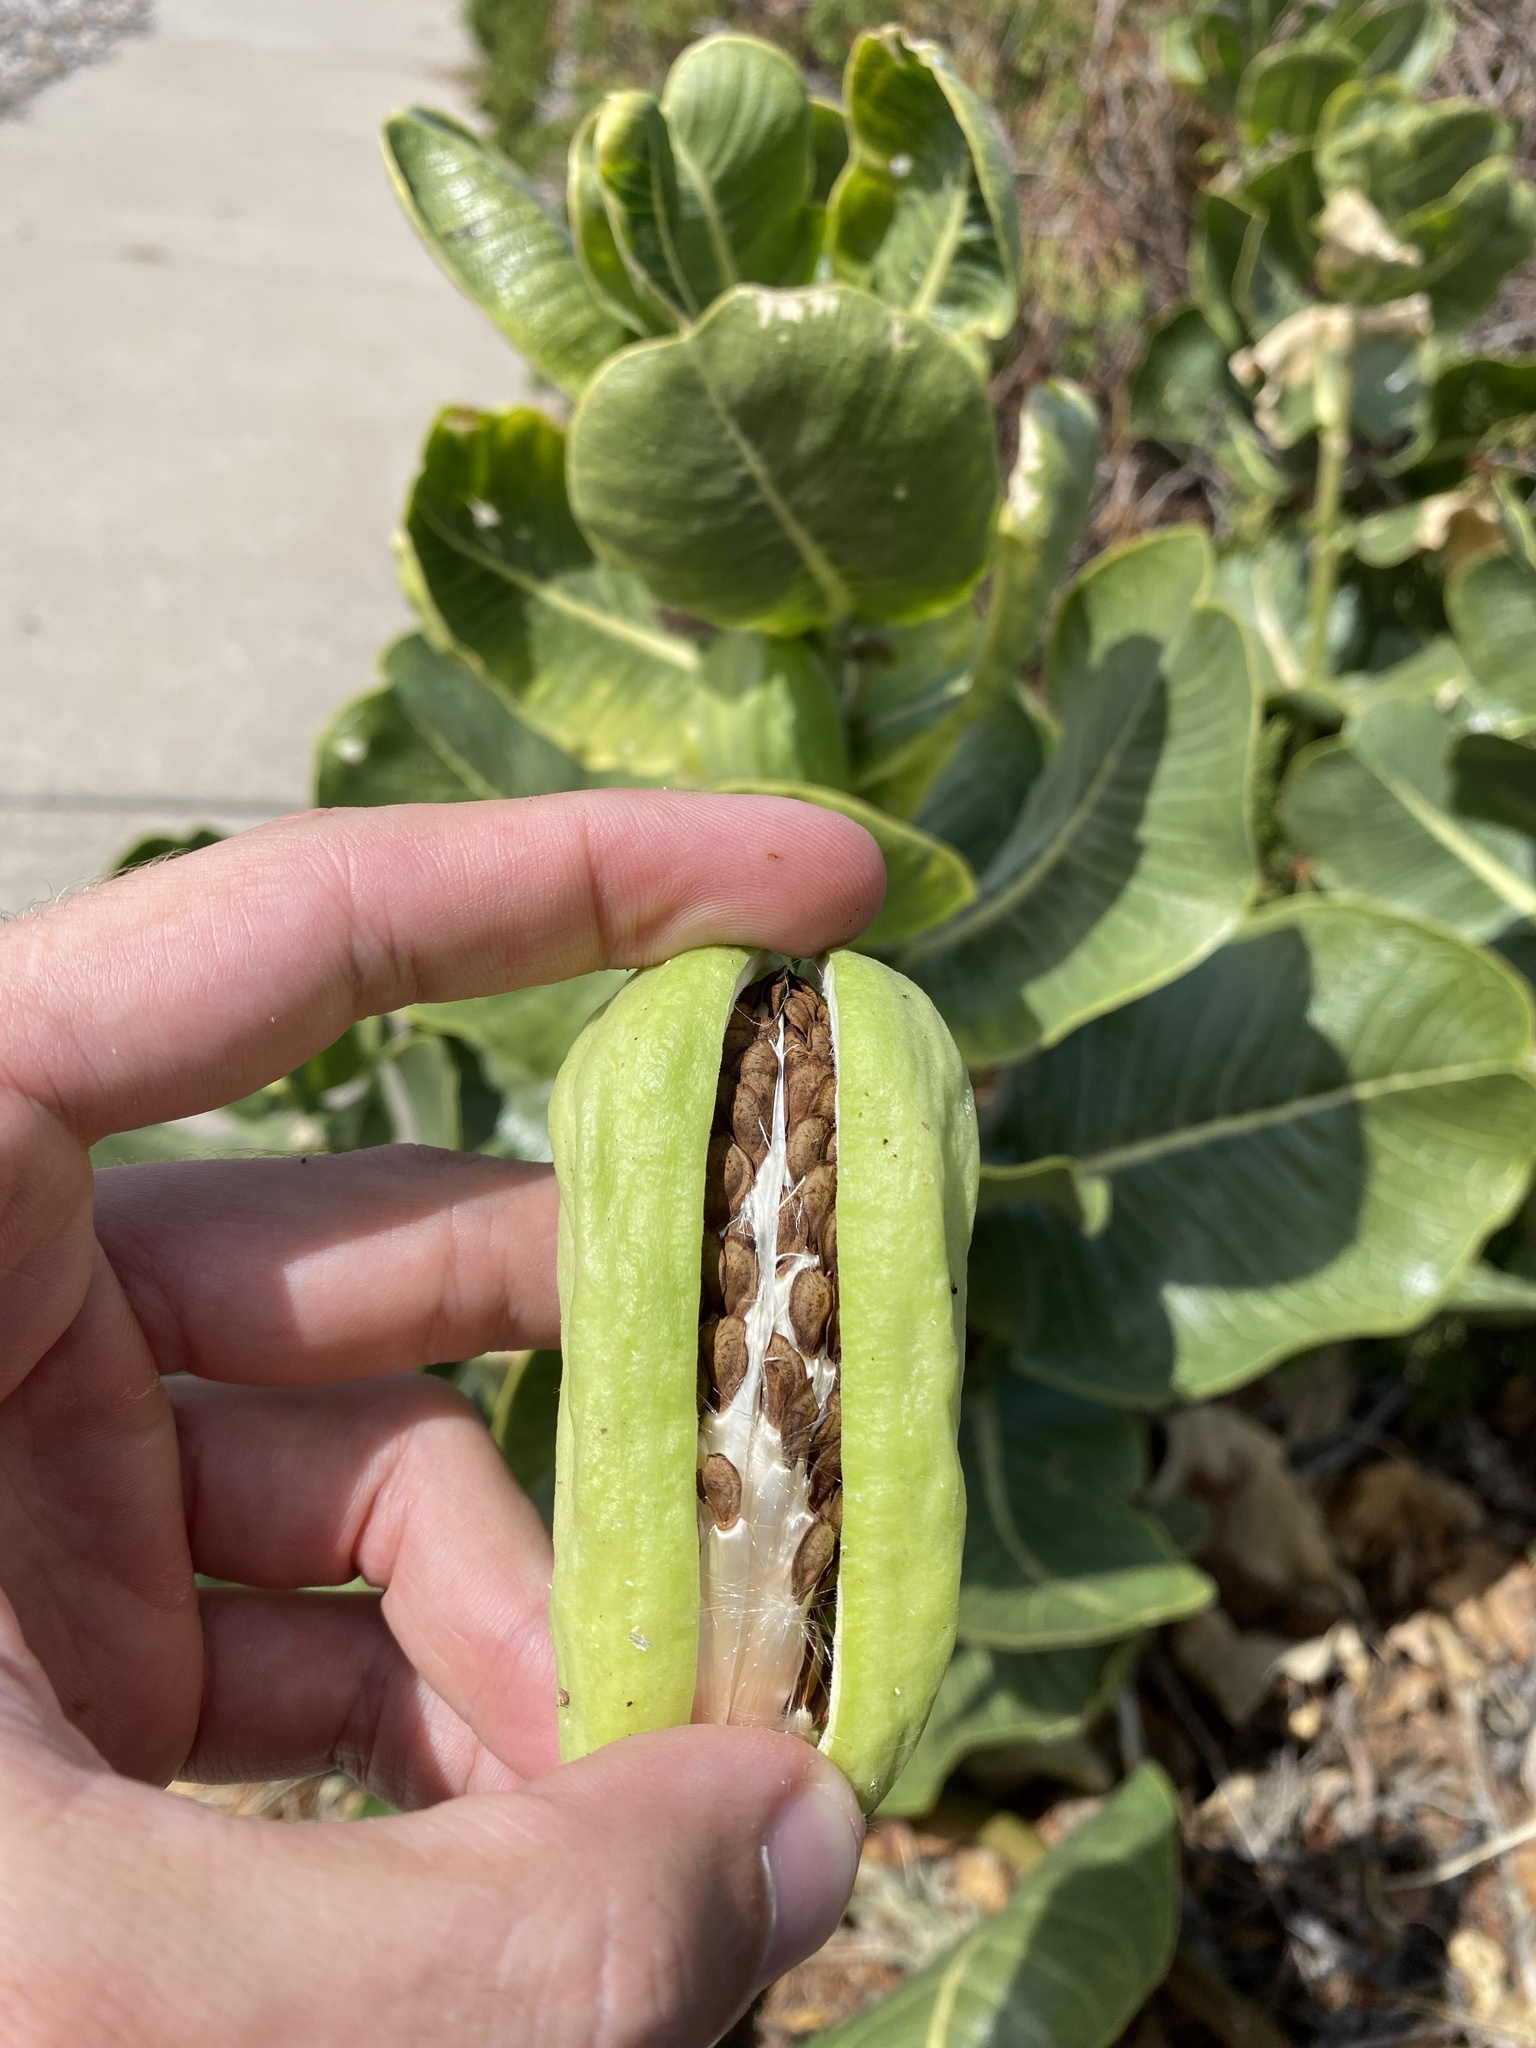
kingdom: Plantae
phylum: Tracheophyta
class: Magnoliopsida
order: Gentianales
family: Apocynaceae
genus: Asclepias
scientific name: Asclepias latifolia
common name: Broadleaf milkweed
